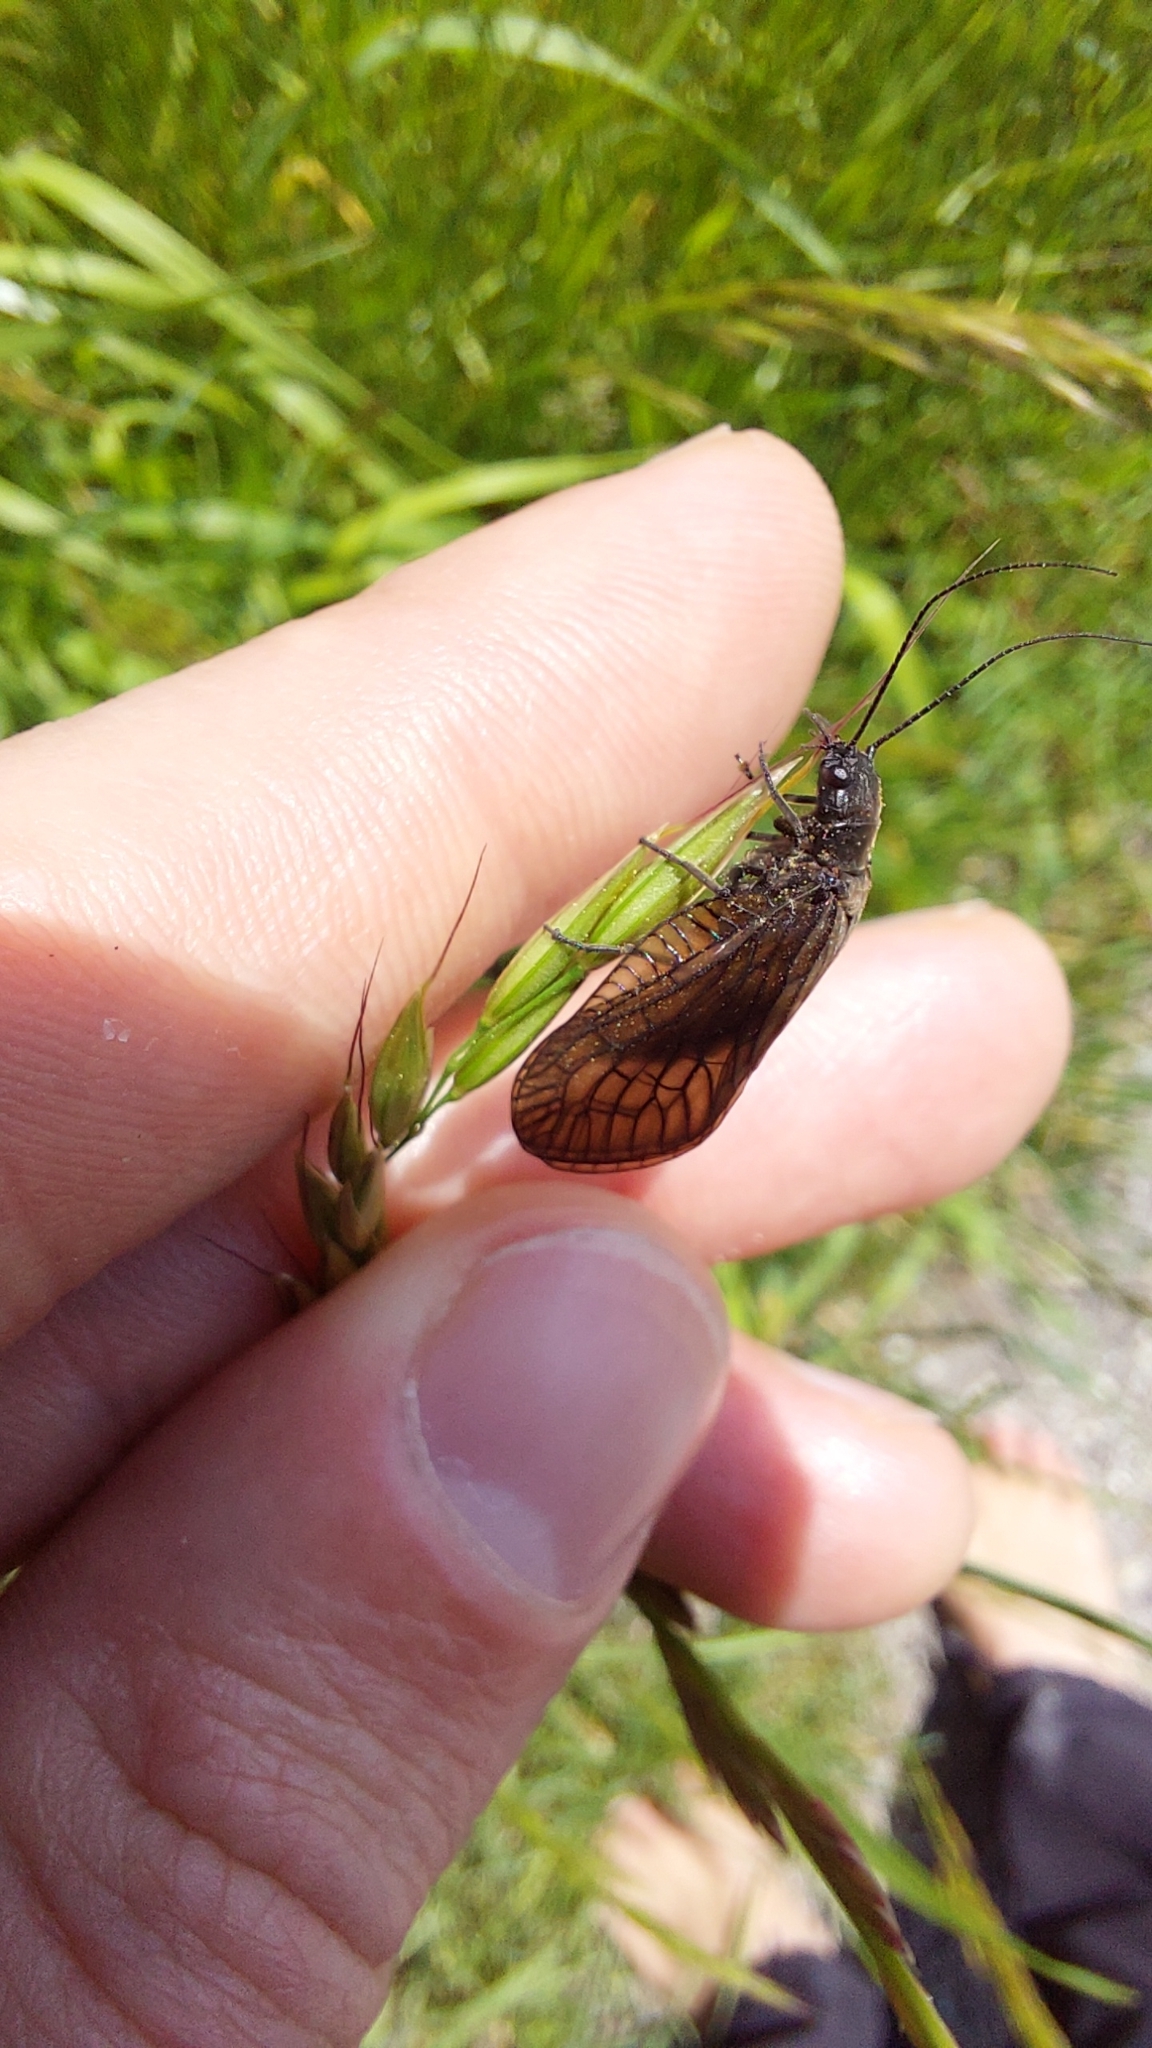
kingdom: Animalia
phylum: Arthropoda
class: Insecta
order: Megaloptera
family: Sialidae
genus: Sialis
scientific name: Sialis
